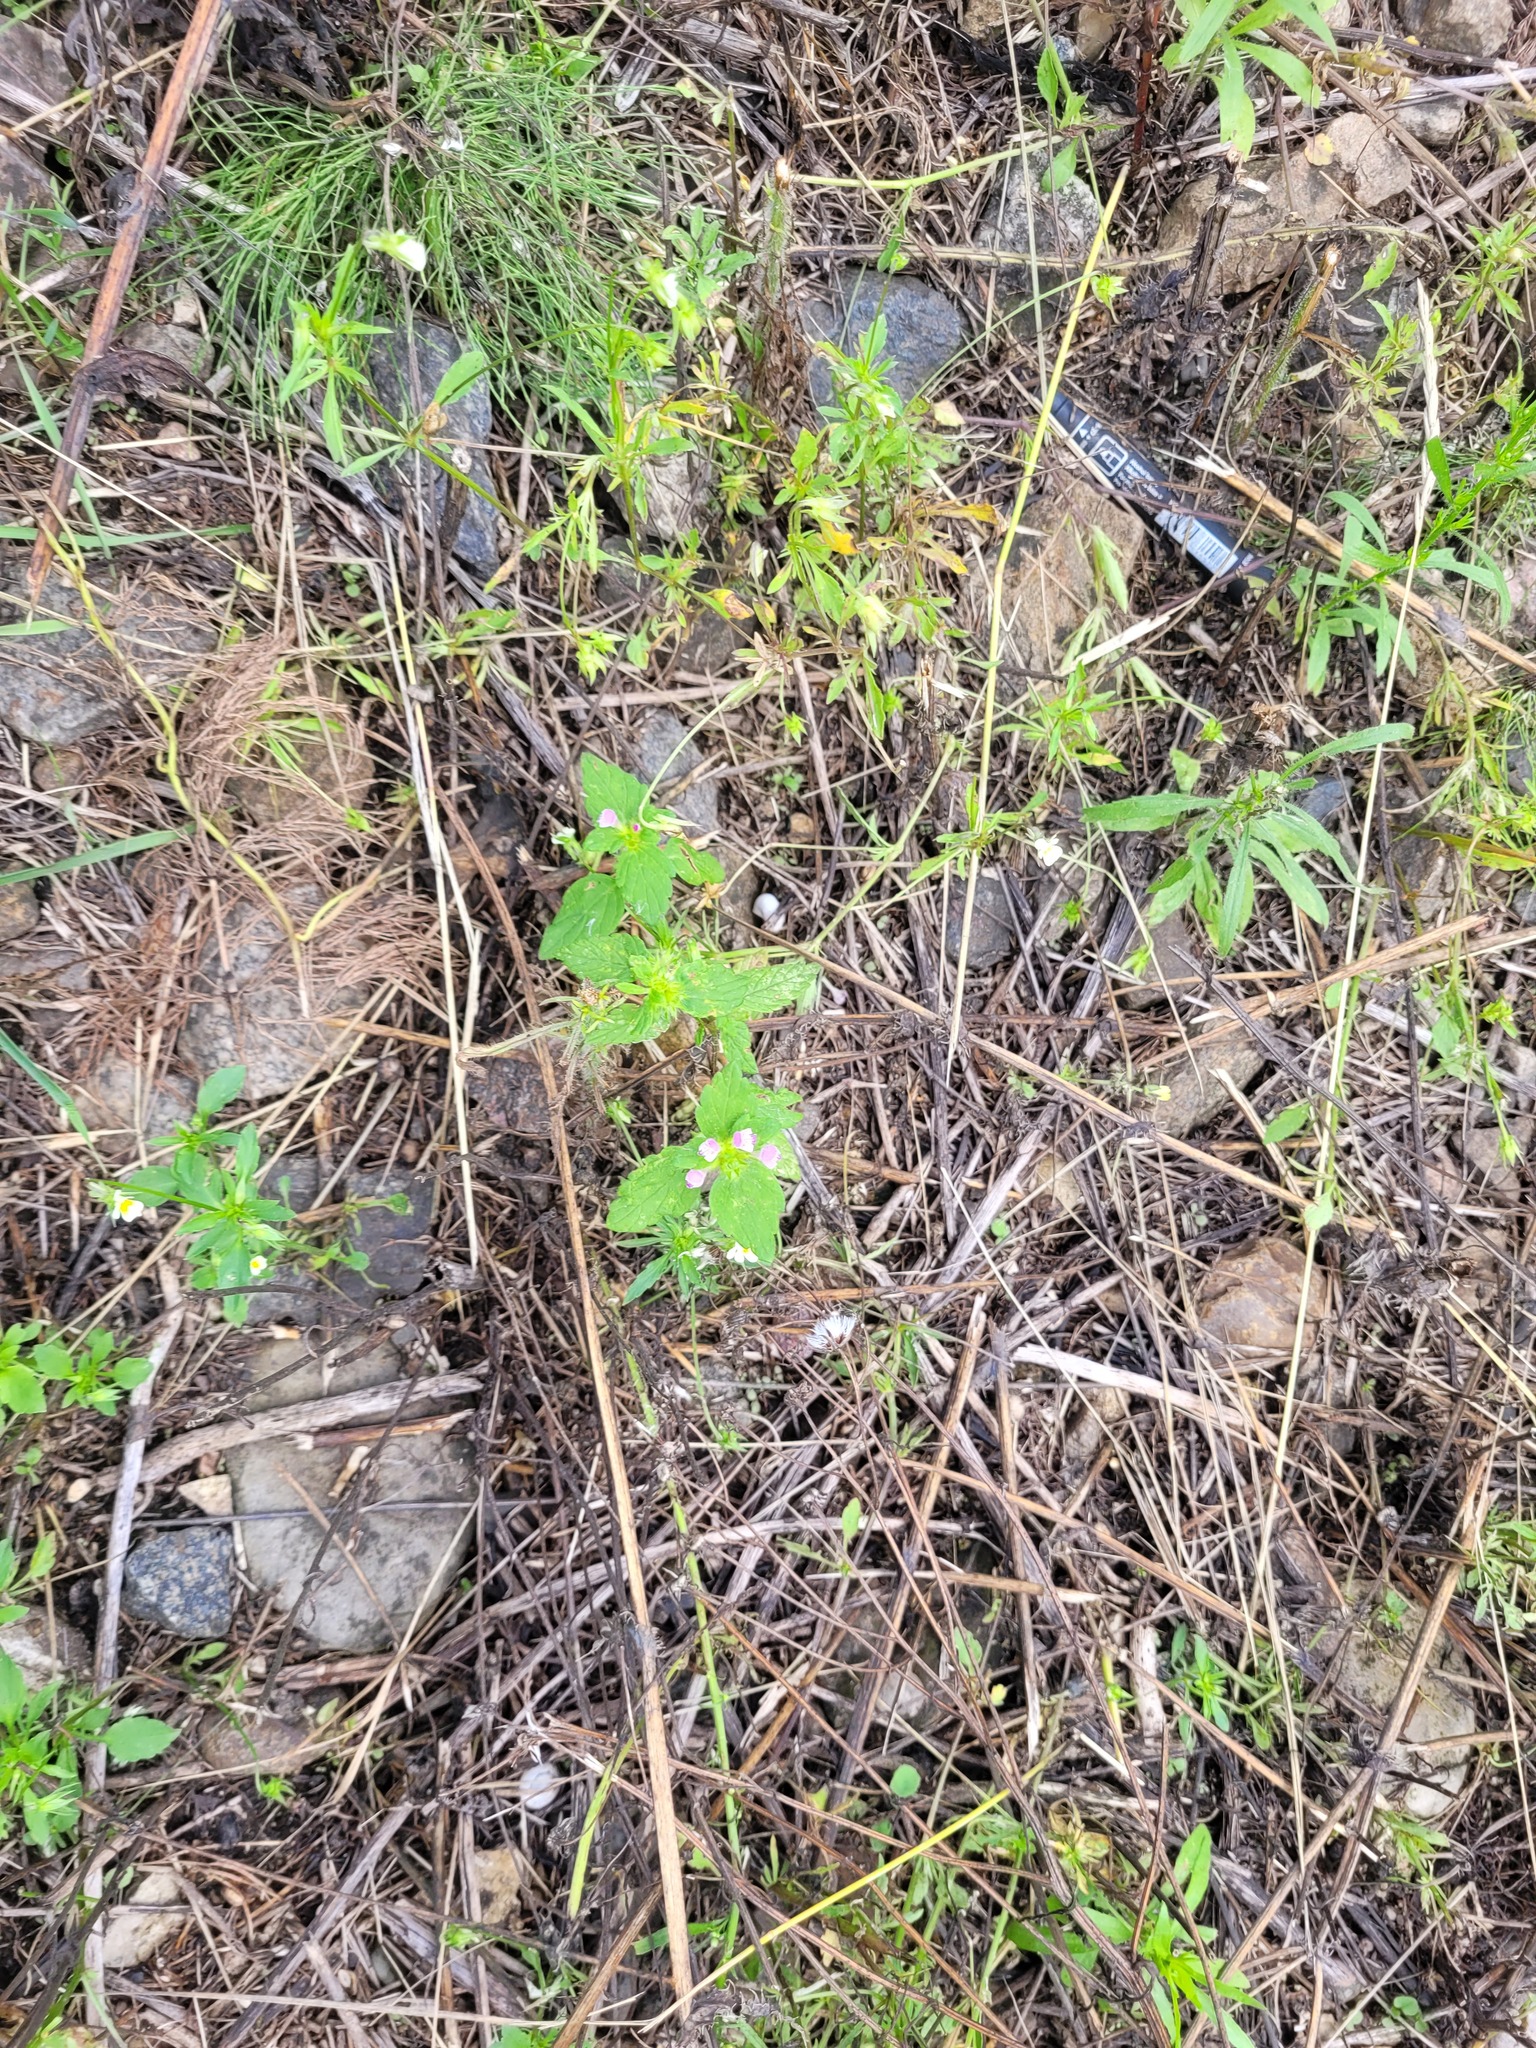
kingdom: Plantae
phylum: Tracheophyta
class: Magnoliopsida
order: Lamiales
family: Lamiaceae
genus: Galeopsis
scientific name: Galeopsis bifida
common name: Bifid hemp-nettle
